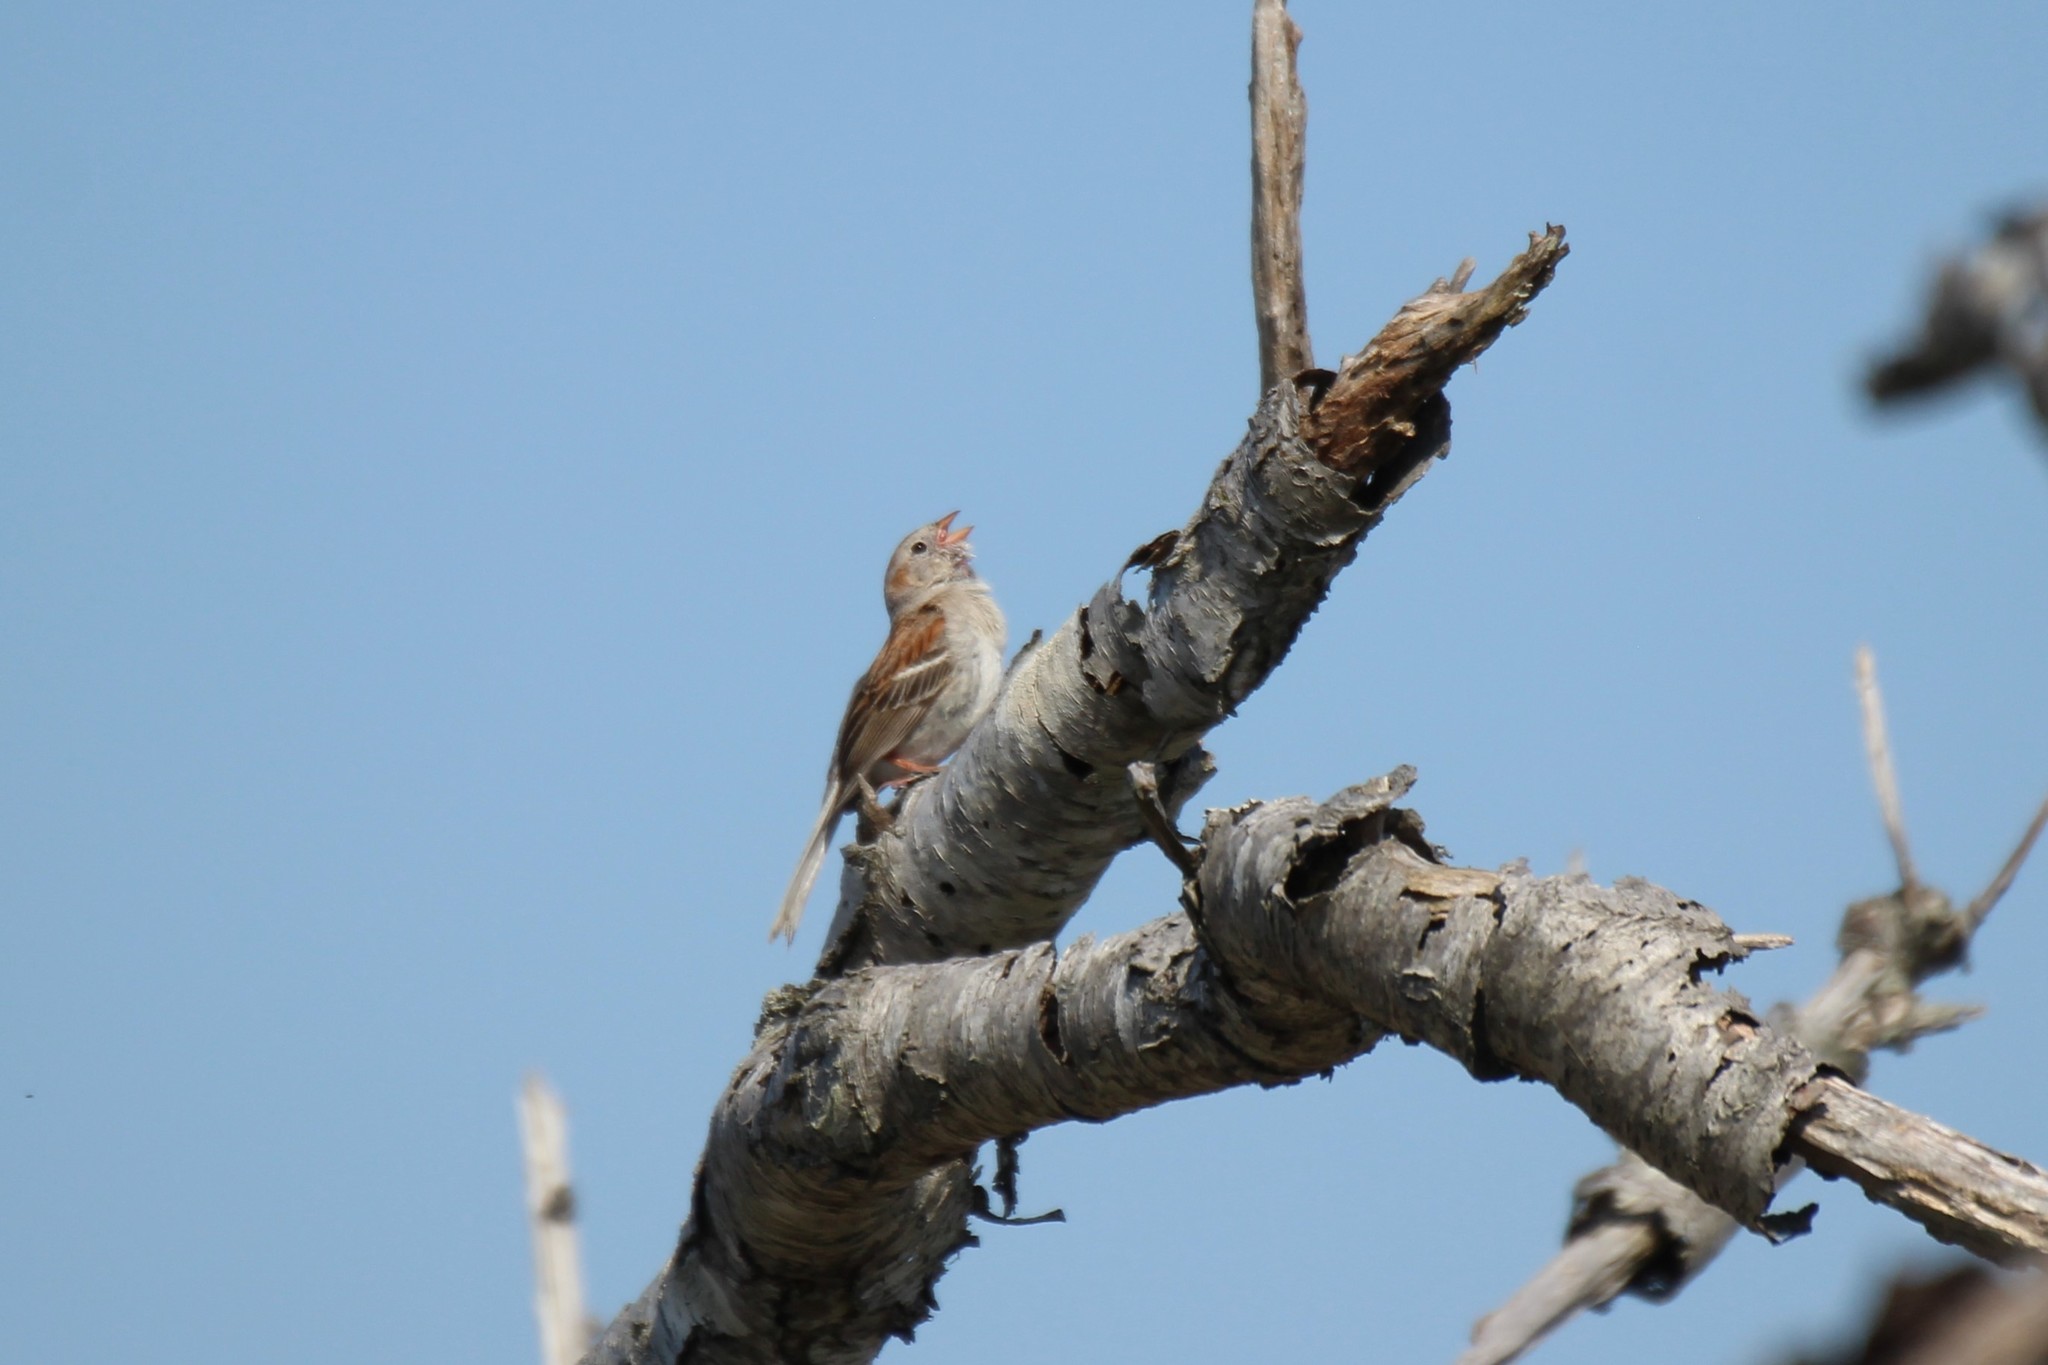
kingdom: Animalia
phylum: Chordata
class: Aves
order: Passeriformes
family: Passerellidae
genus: Spizella
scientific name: Spizella pusilla
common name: Field sparrow
